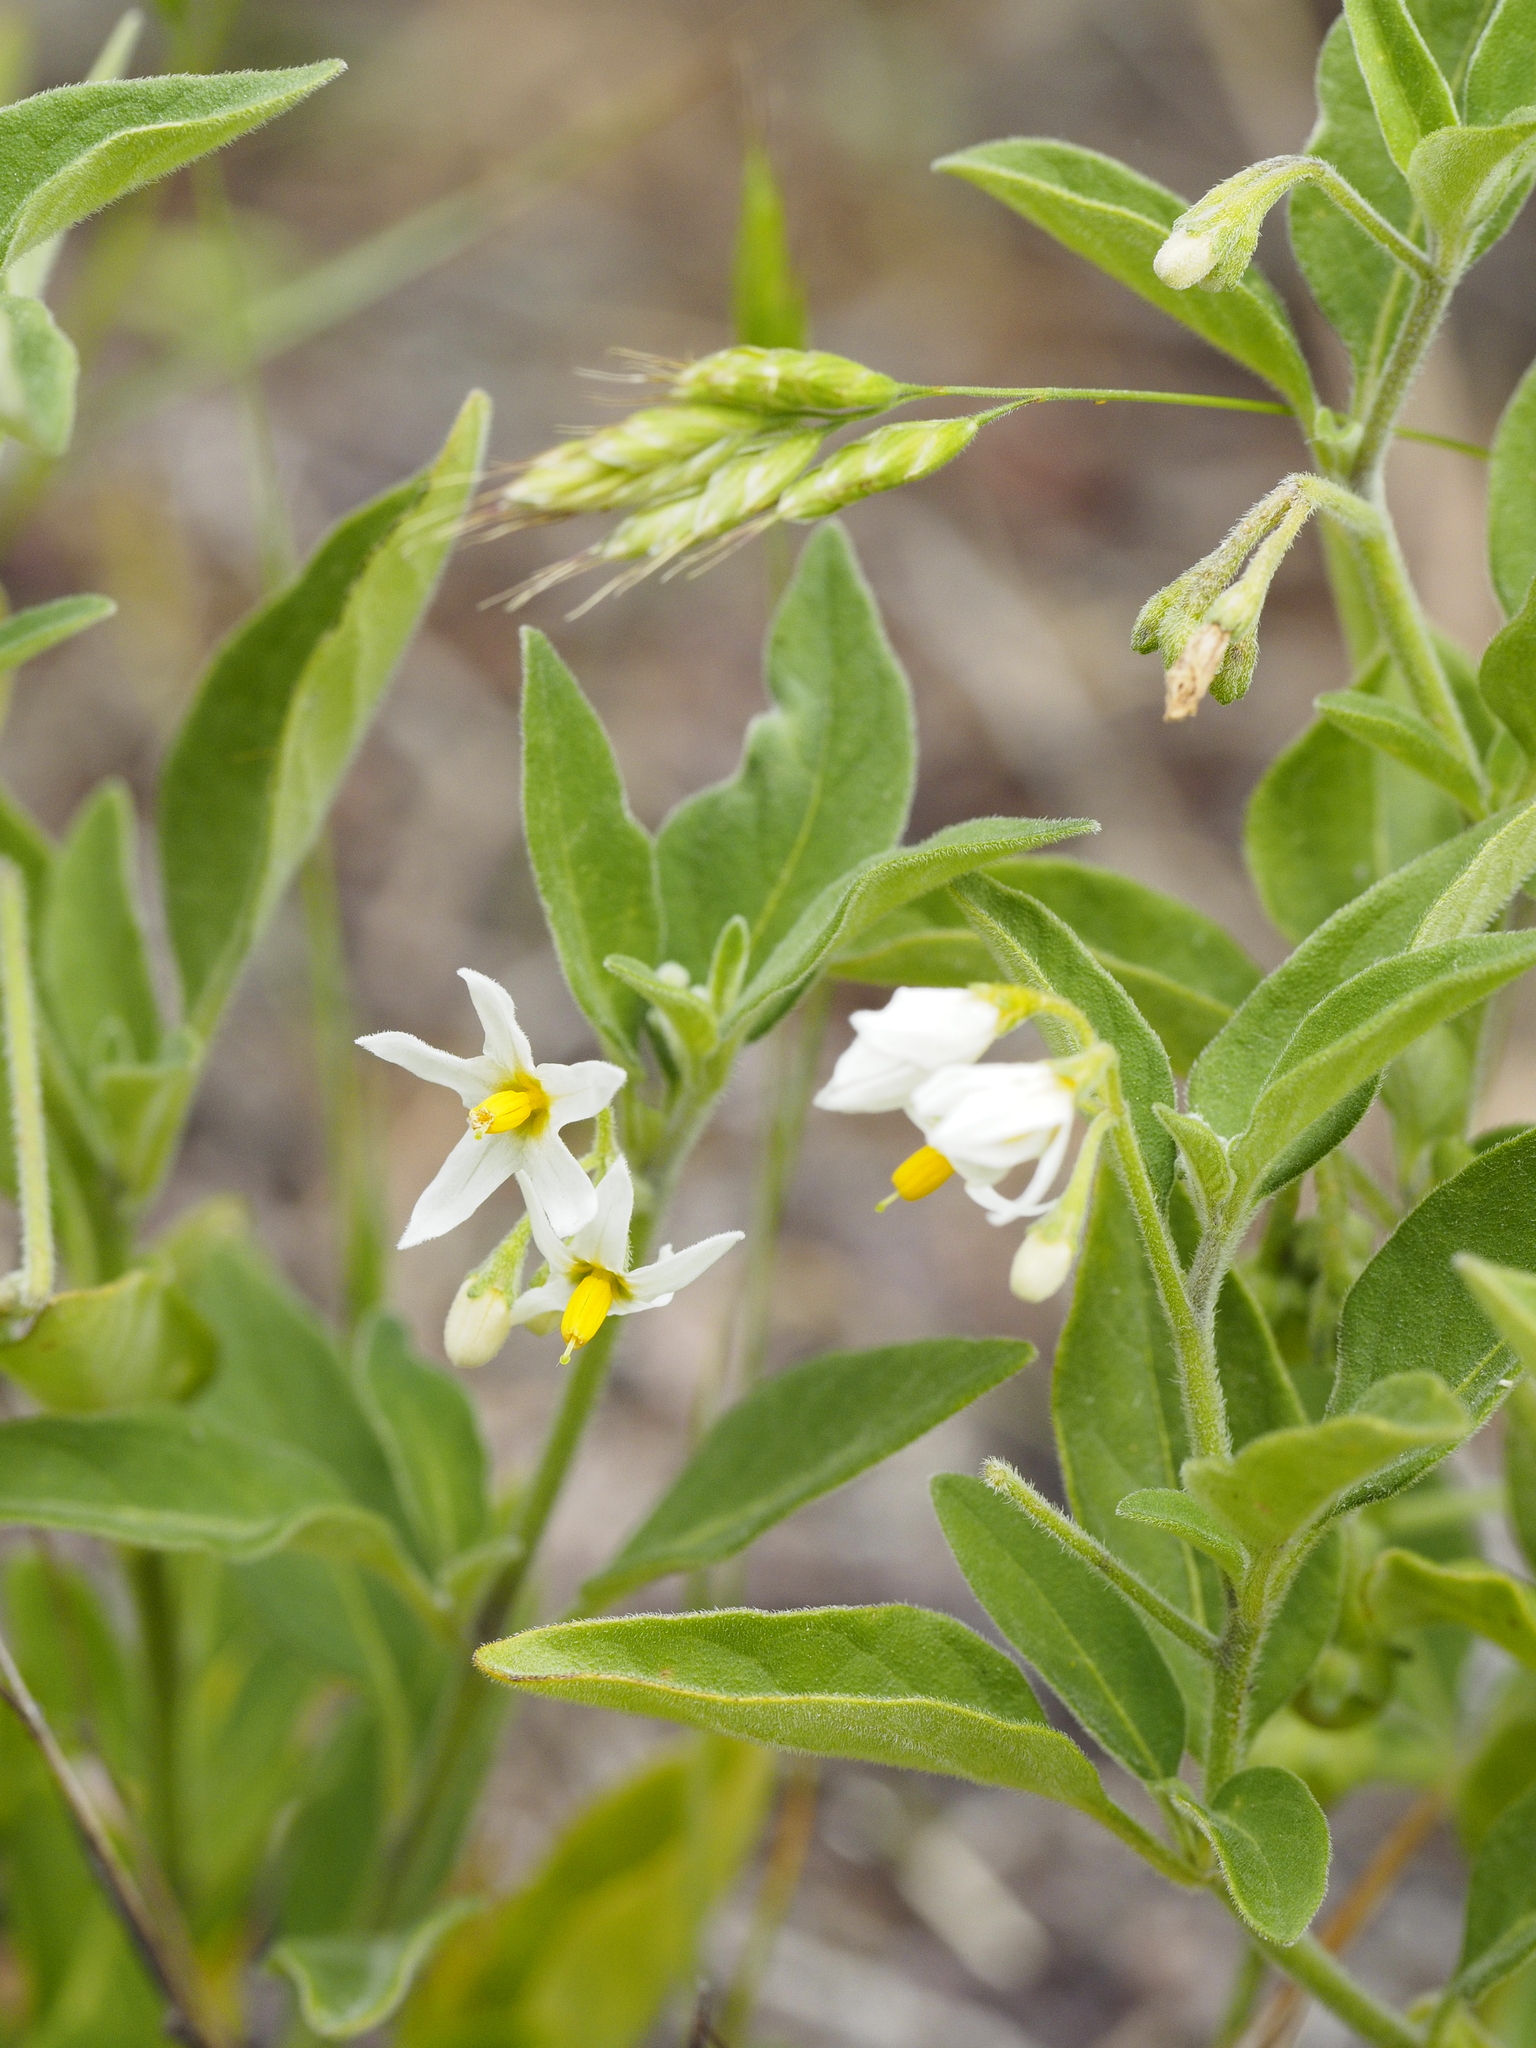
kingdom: Plantae
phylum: Tracheophyta
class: Magnoliopsida
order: Solanales
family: Solanaceae
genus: Solanum
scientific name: Solanum chenopodioides
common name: Tall nightshade
